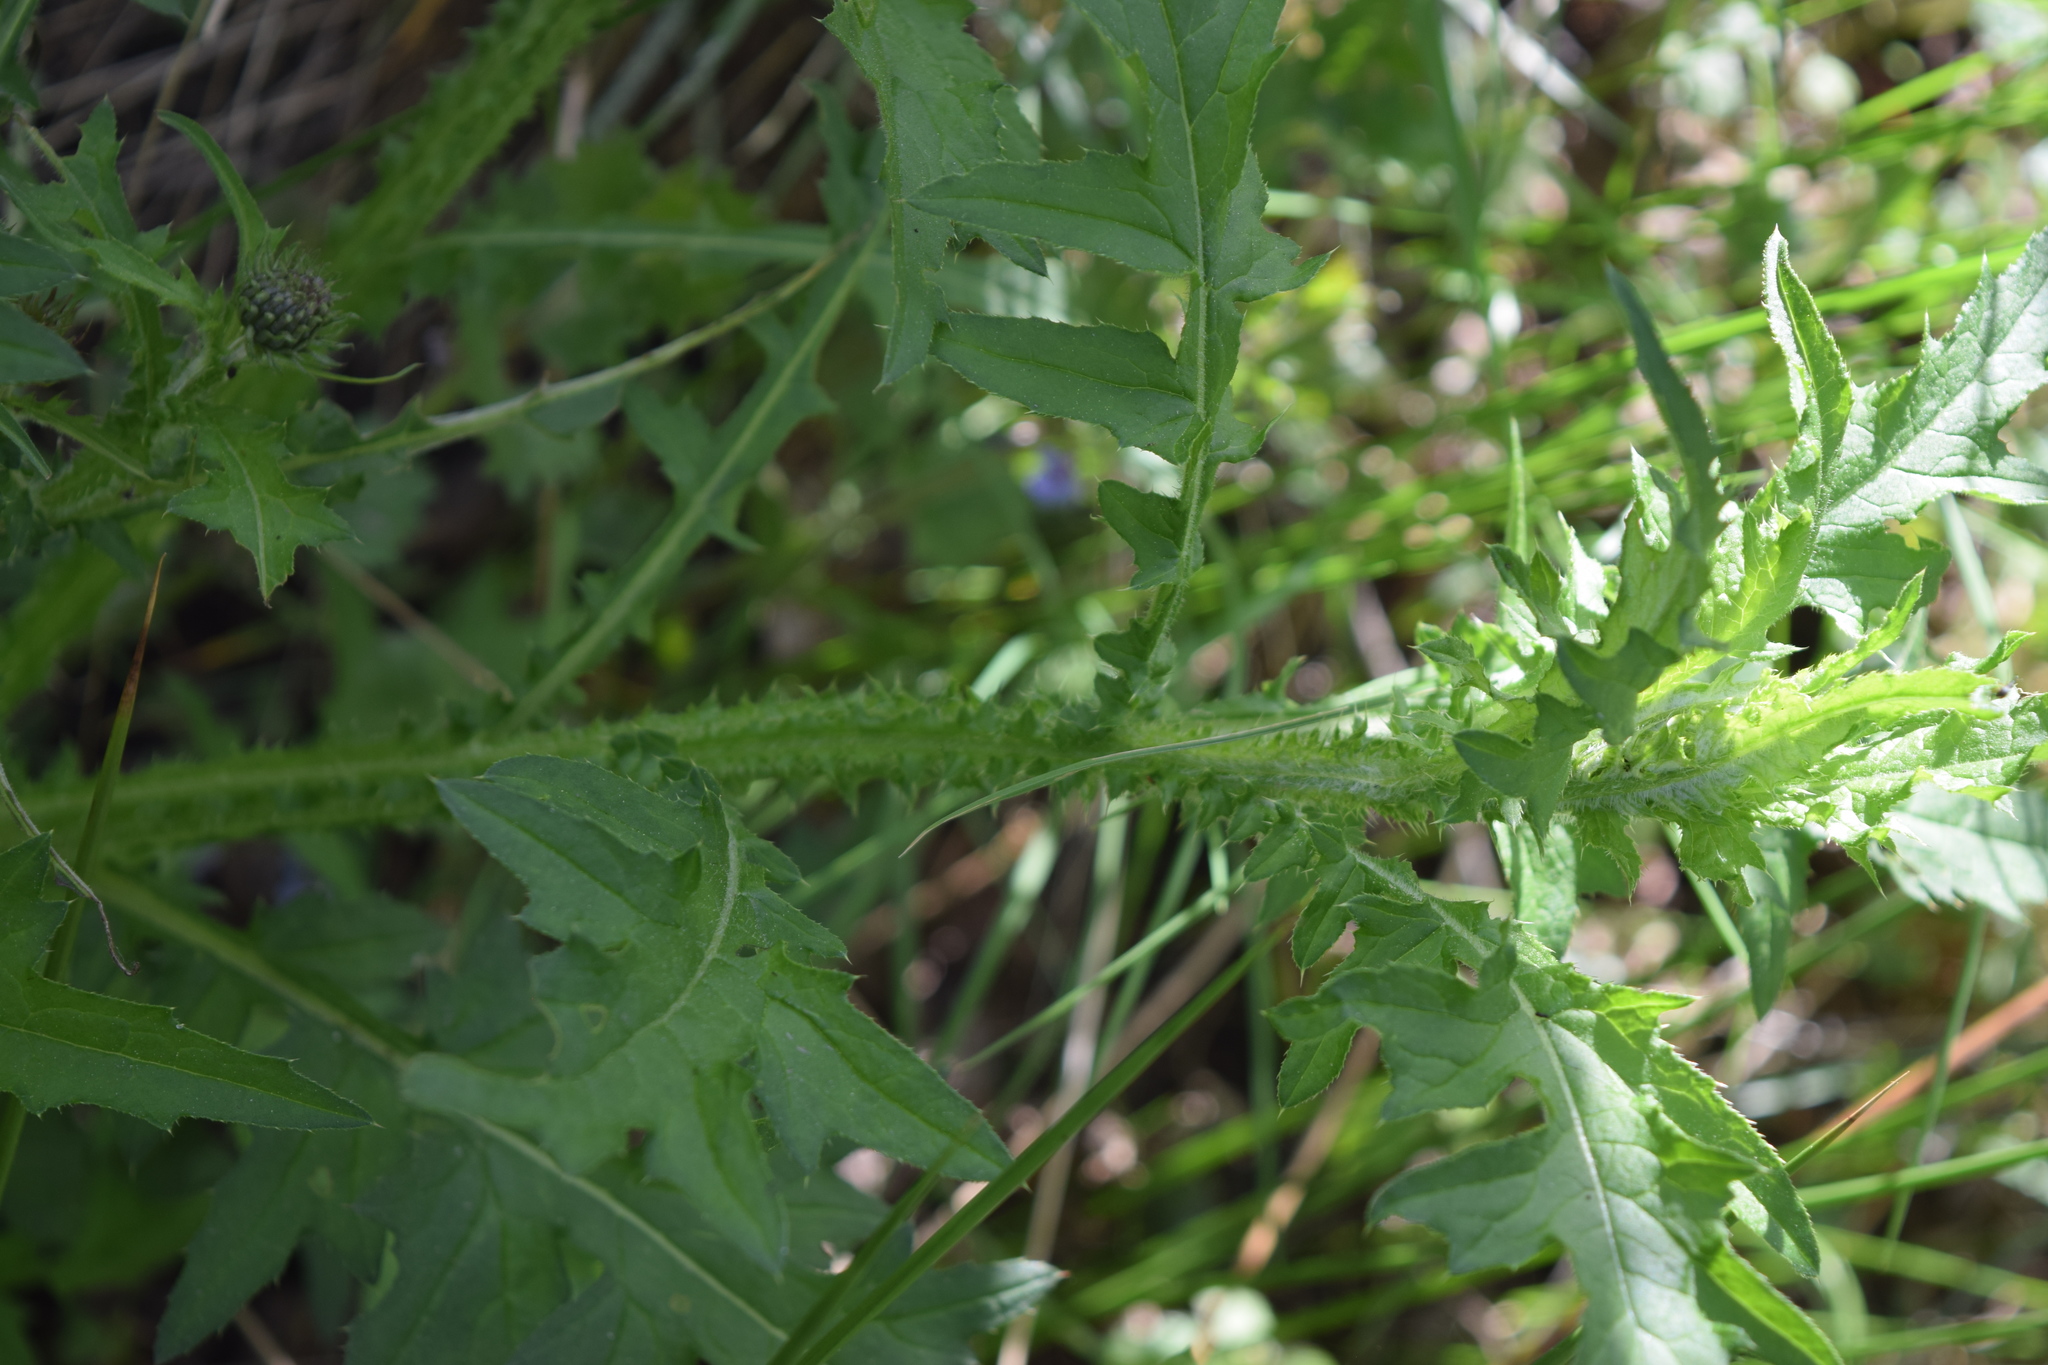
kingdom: Plantae
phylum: Tracheophyta
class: Magnoliopsida
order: Asterales
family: Asteraceae
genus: Carduus
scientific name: Carduus crispus
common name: Welted thistle
